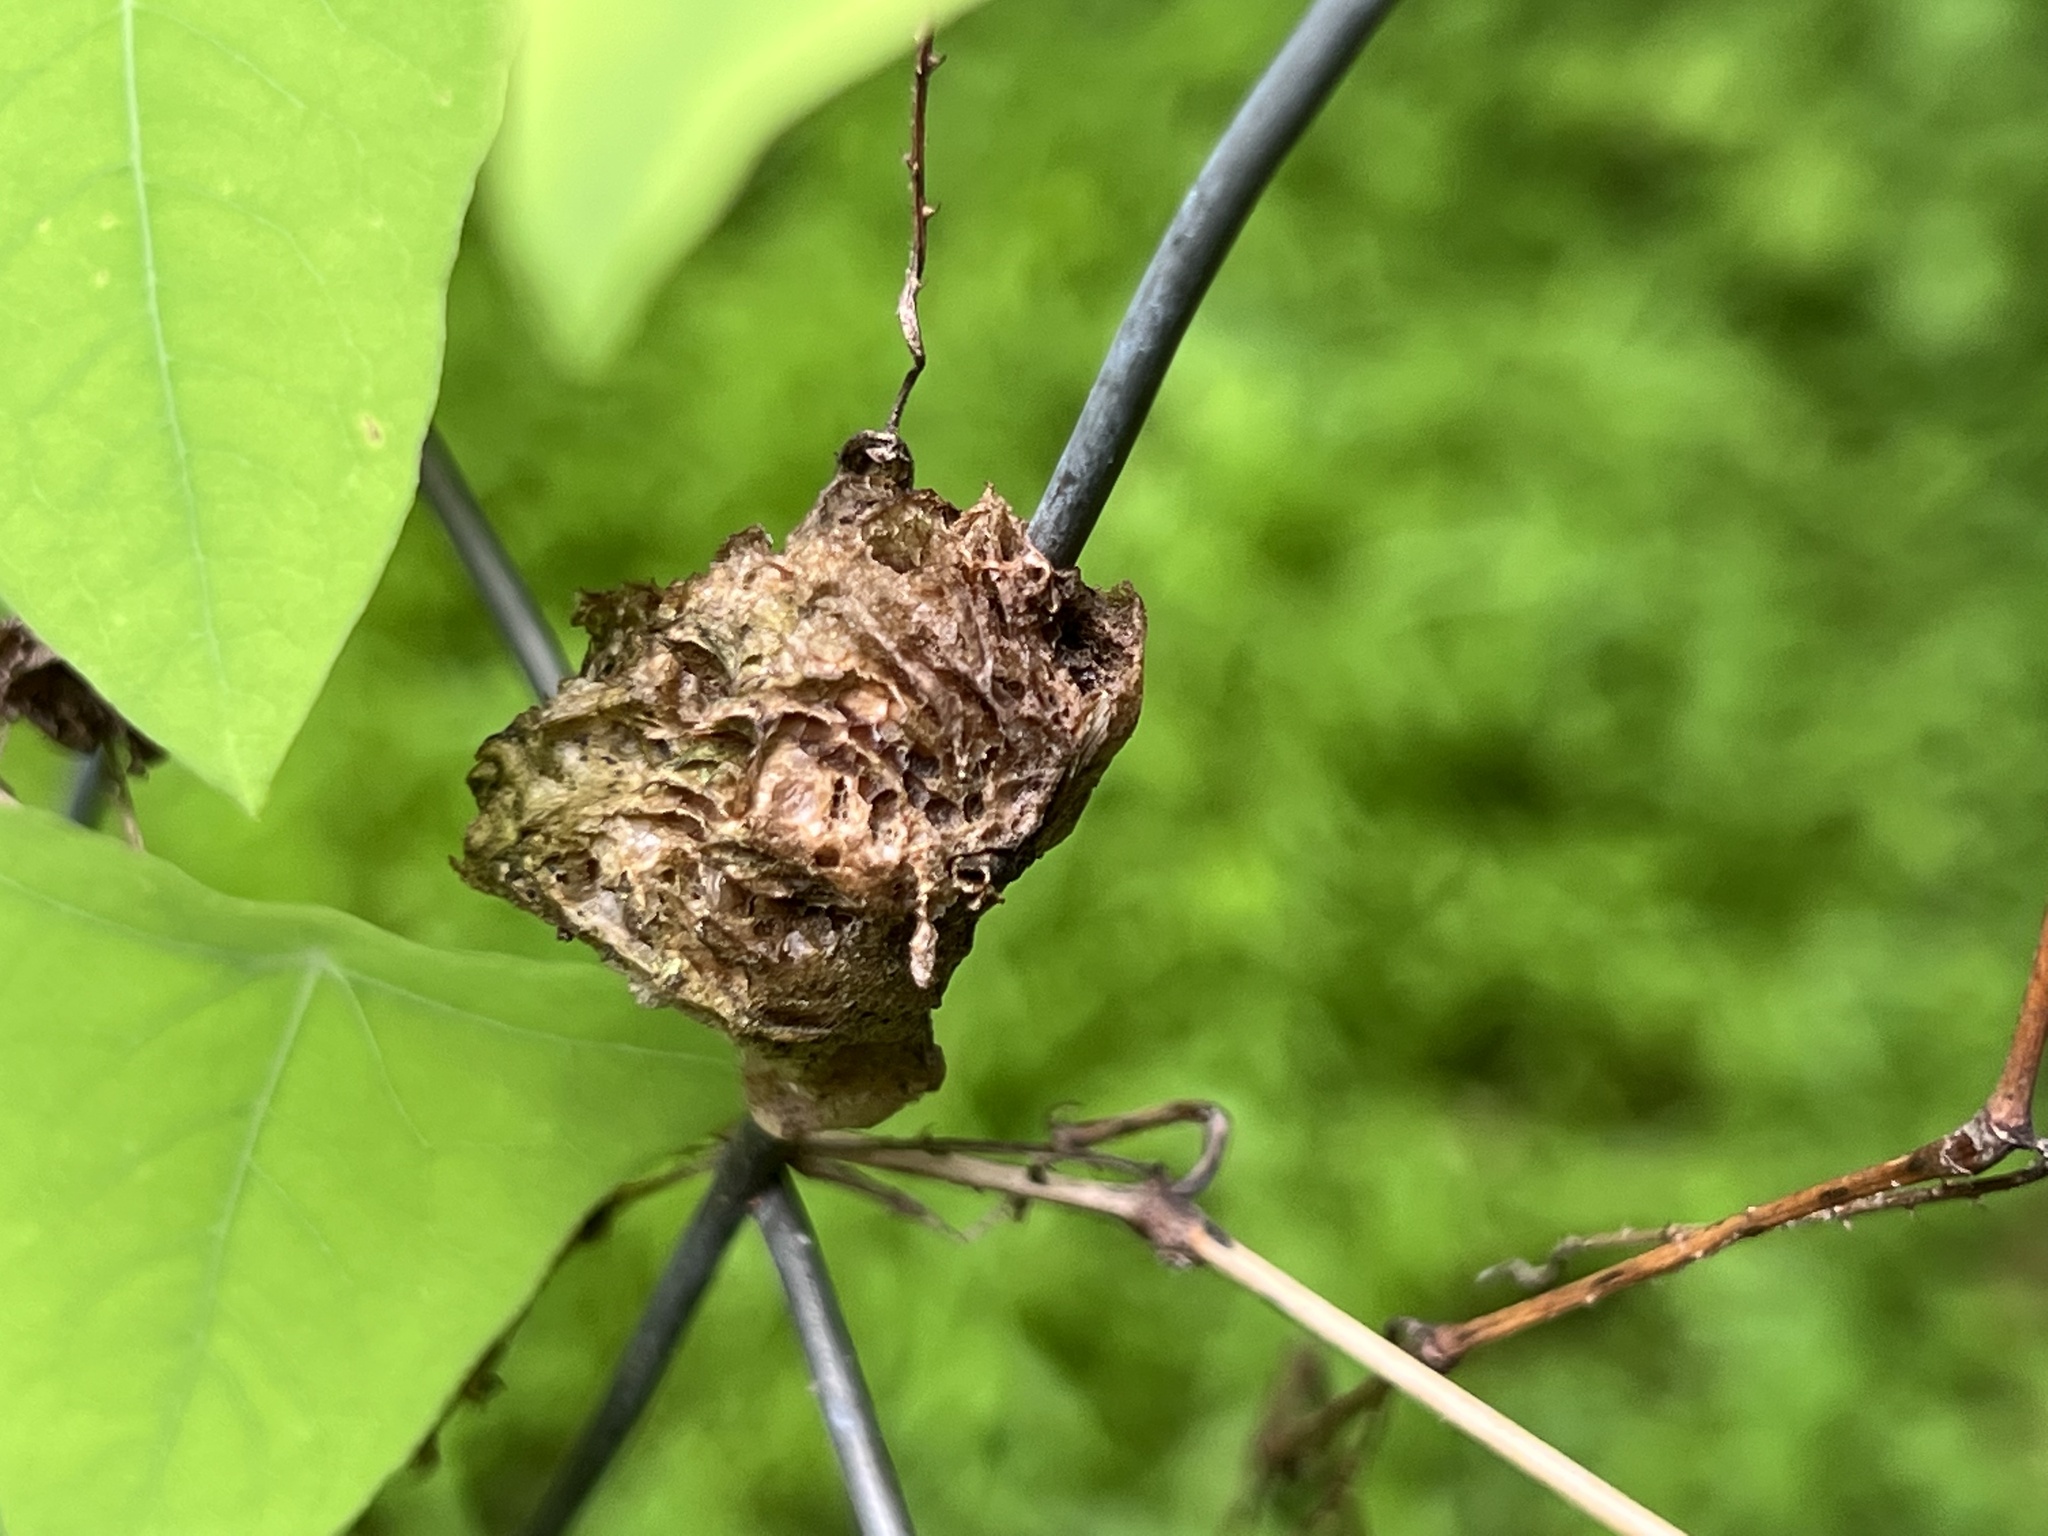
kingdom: Animalia
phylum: Arthropoda
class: Insecta
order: Mantodea
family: Mantidae
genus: Tenodera
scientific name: Tenodera sinensis
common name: Chinese mantis
